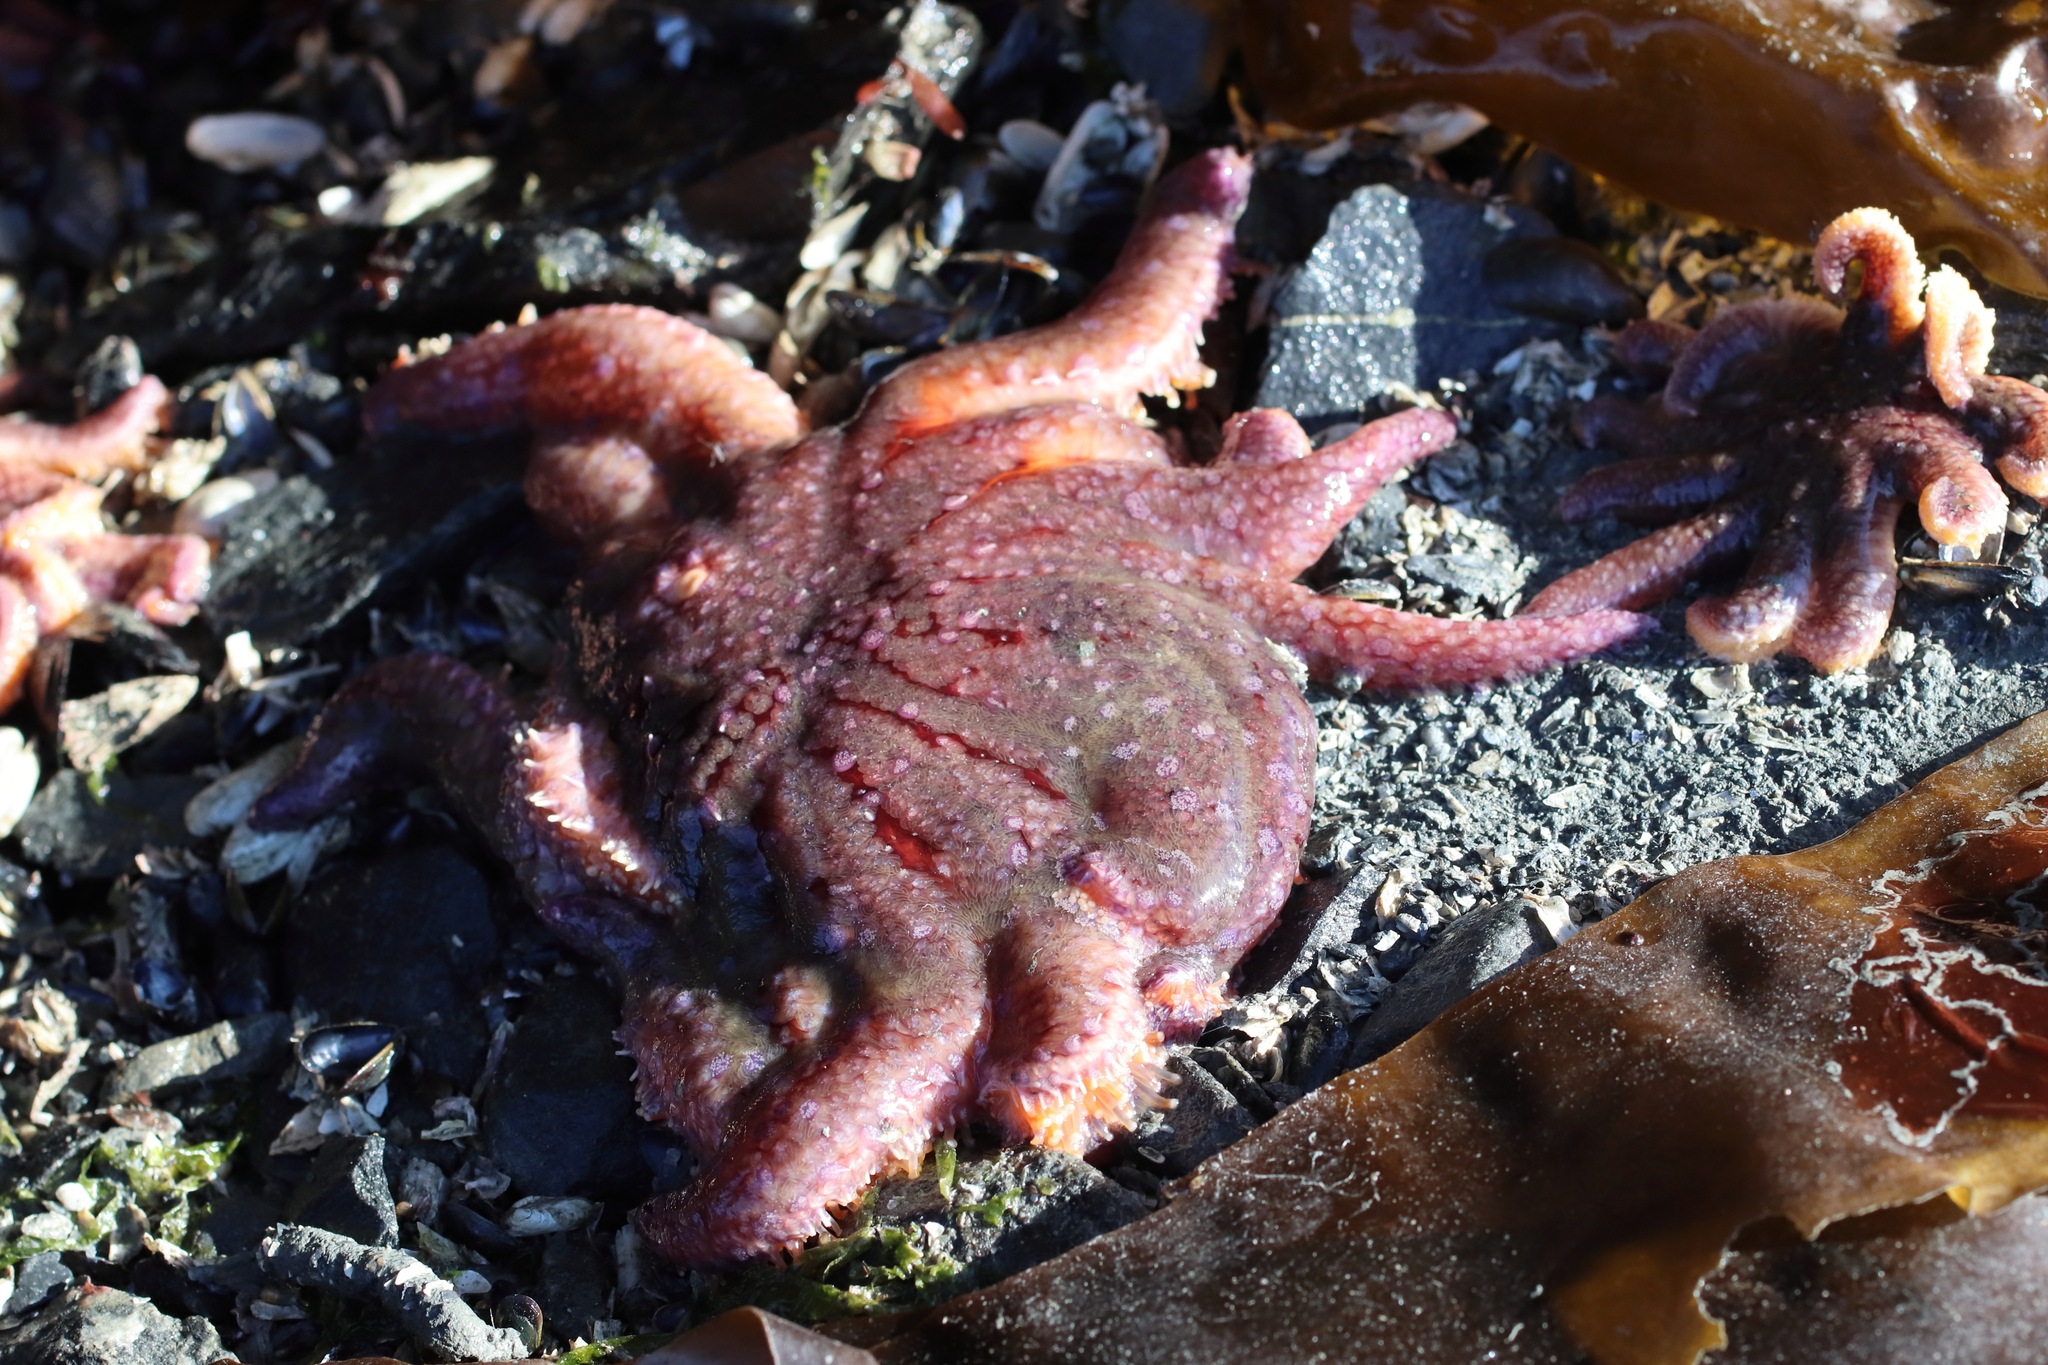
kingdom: Animalia
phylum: Echinodermata
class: Asteroidea
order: Forcipulatida
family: Asteriidae
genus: Pycnopodia
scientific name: Pycnopodia helianthoides
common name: Rag mop
